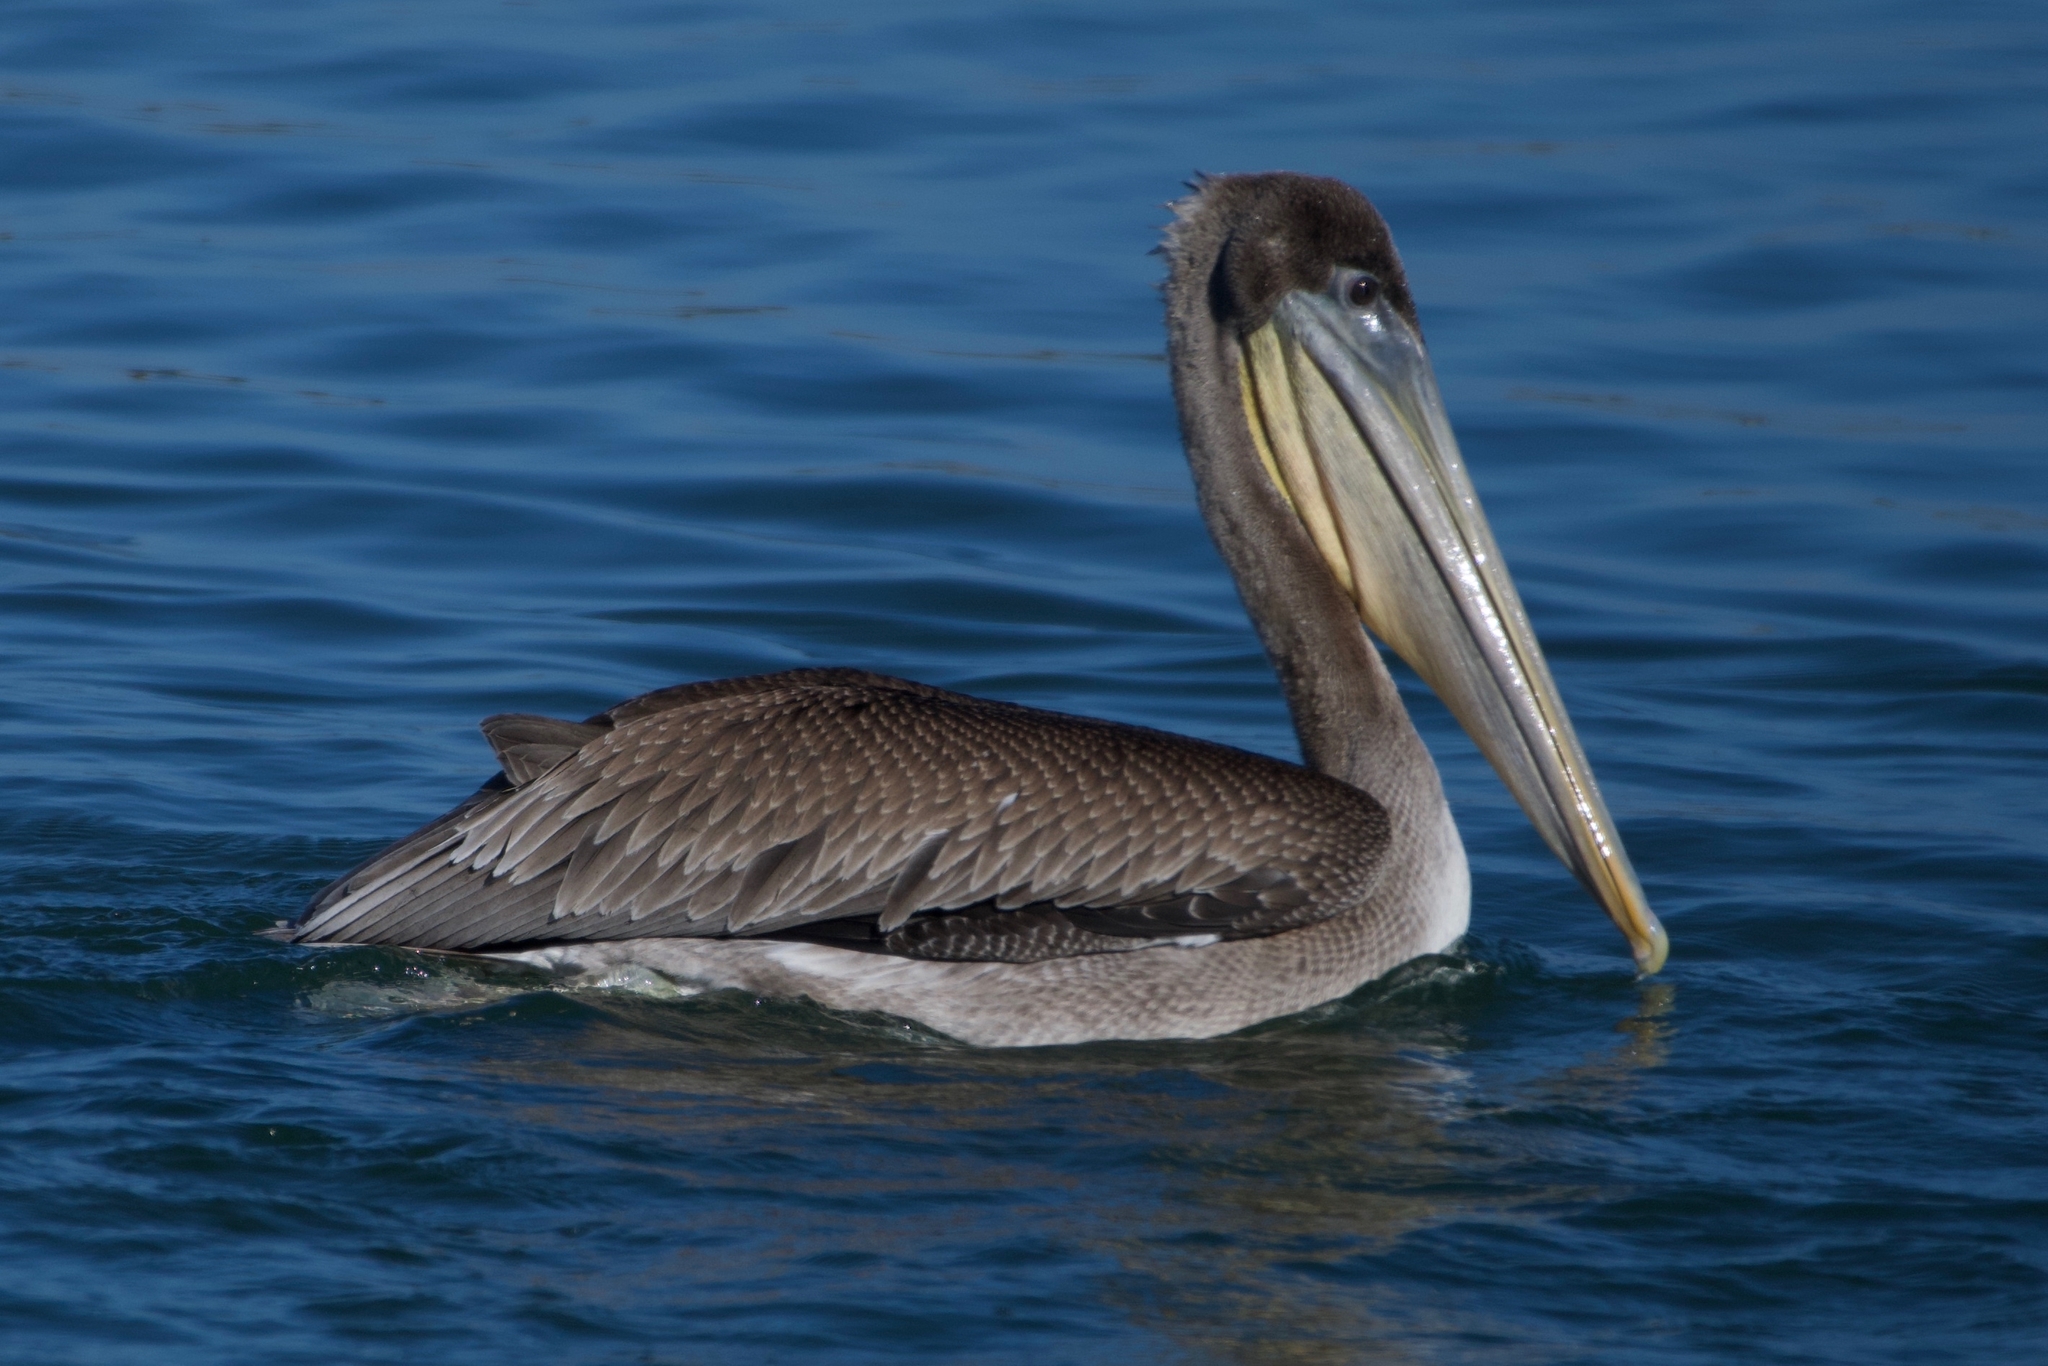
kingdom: Animalia
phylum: Chordata
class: Aves
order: Pelecaniformes
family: Pelecanidae
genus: Pelecanus
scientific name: Pelecanus occidentalis
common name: Brown pelican
